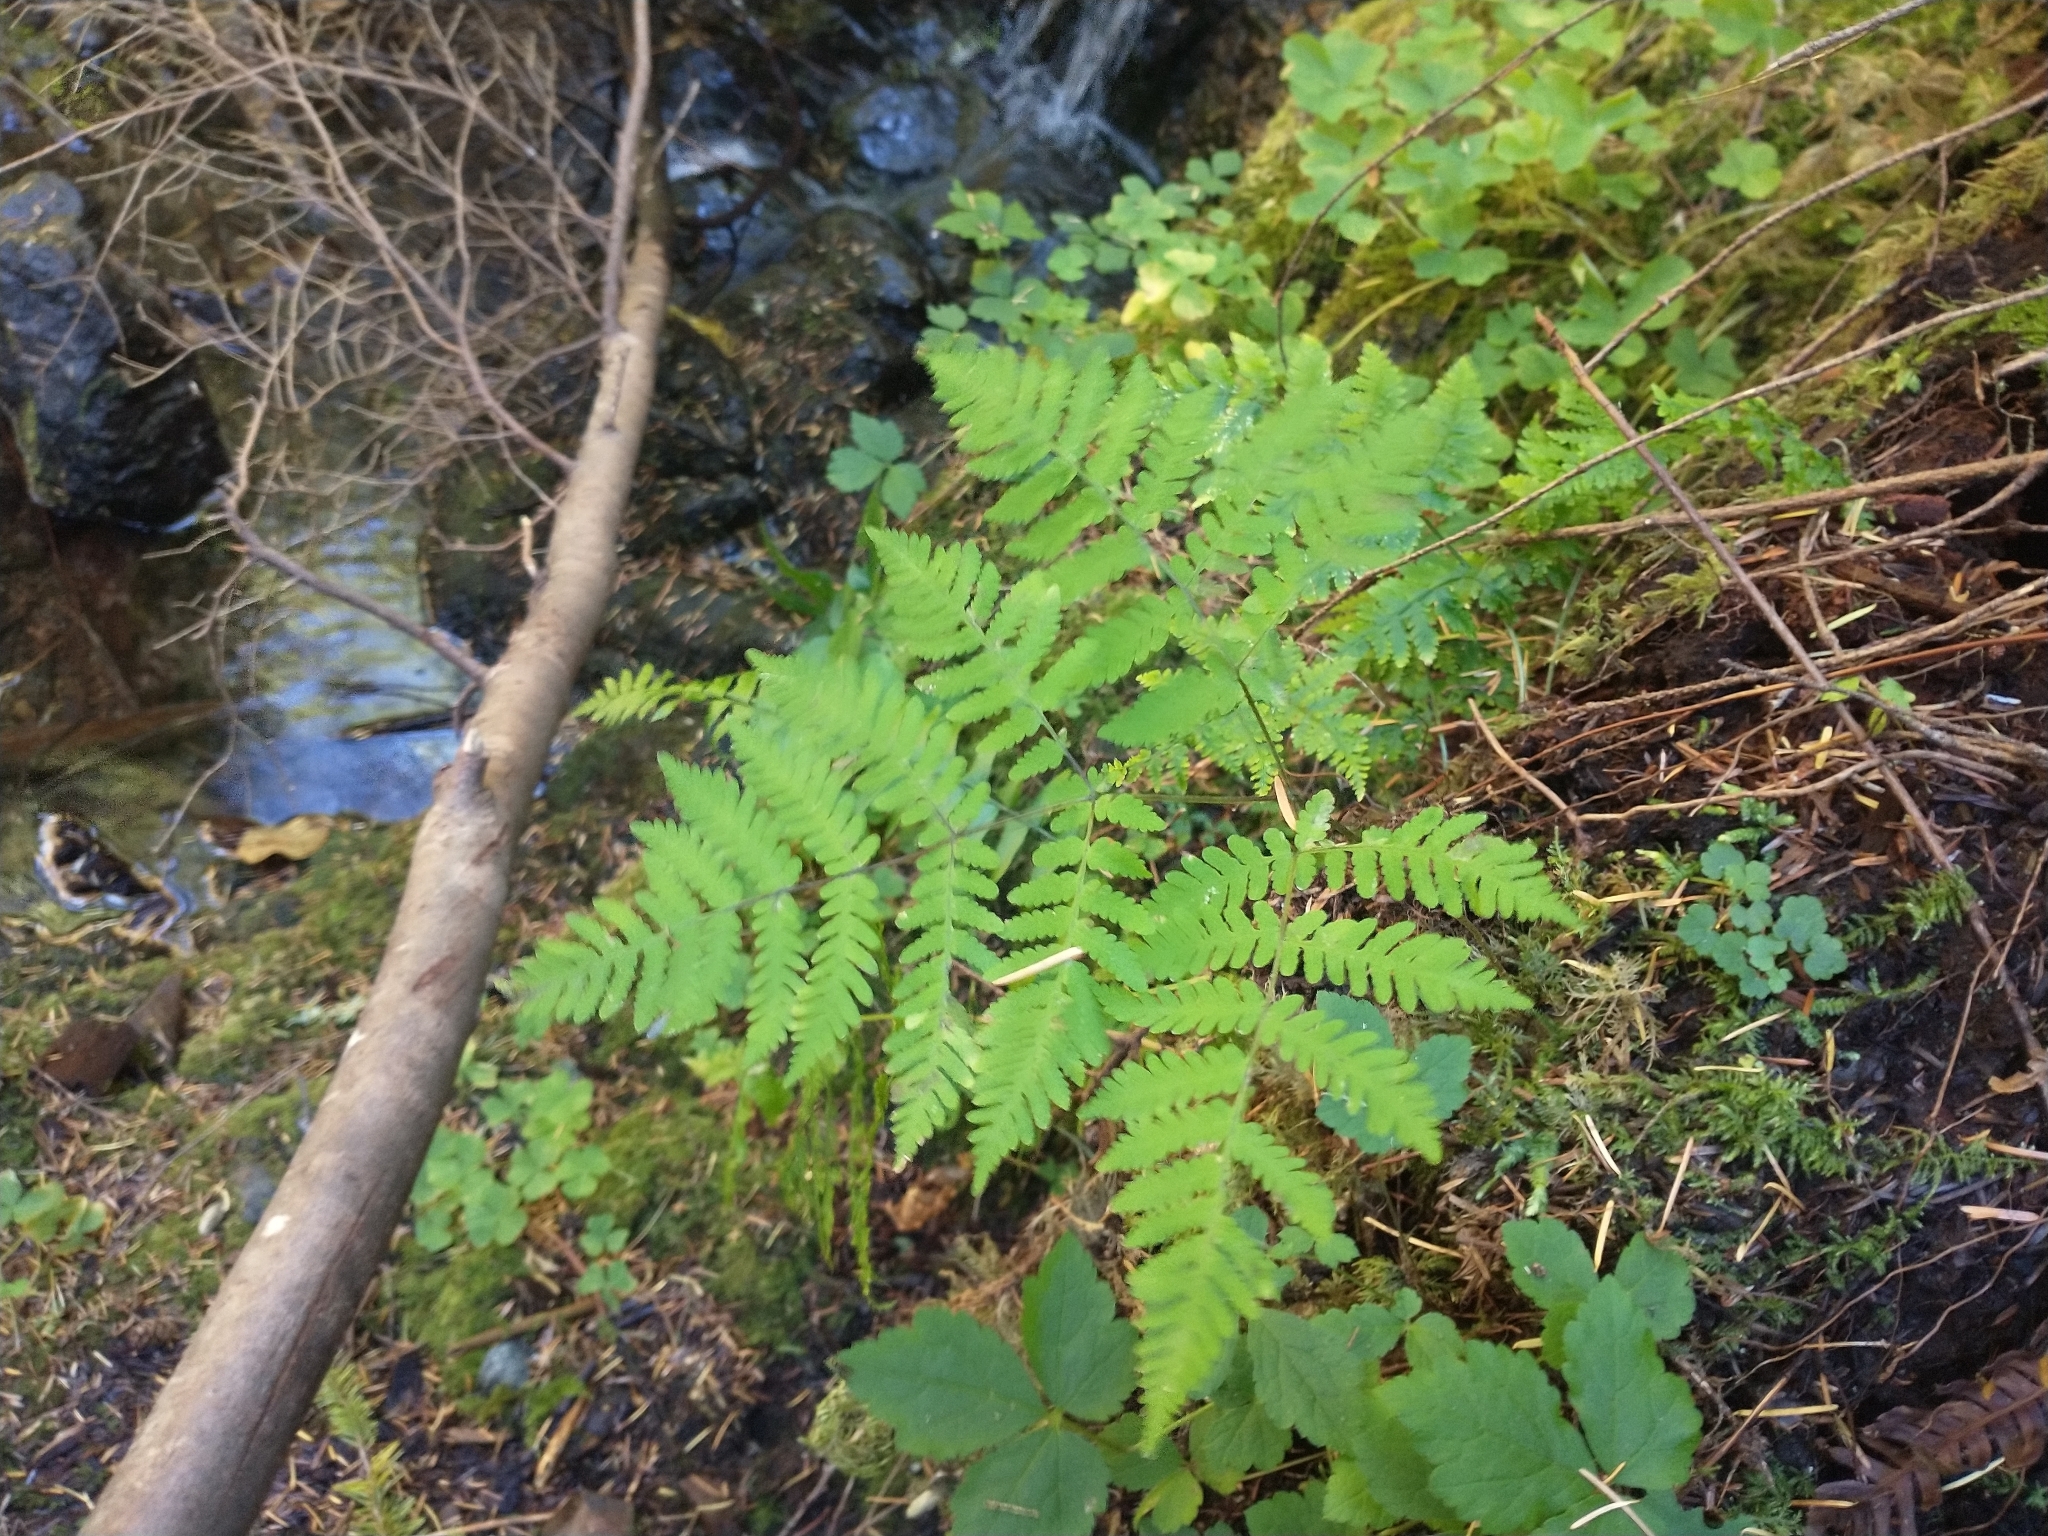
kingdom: Plantae
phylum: Tracheophyta
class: Polypodiopsida
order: Polypodiales
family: Cystopteridaceae
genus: Gymnocarpium
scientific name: Gymnocarpium disjunctum
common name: Western oak fern
